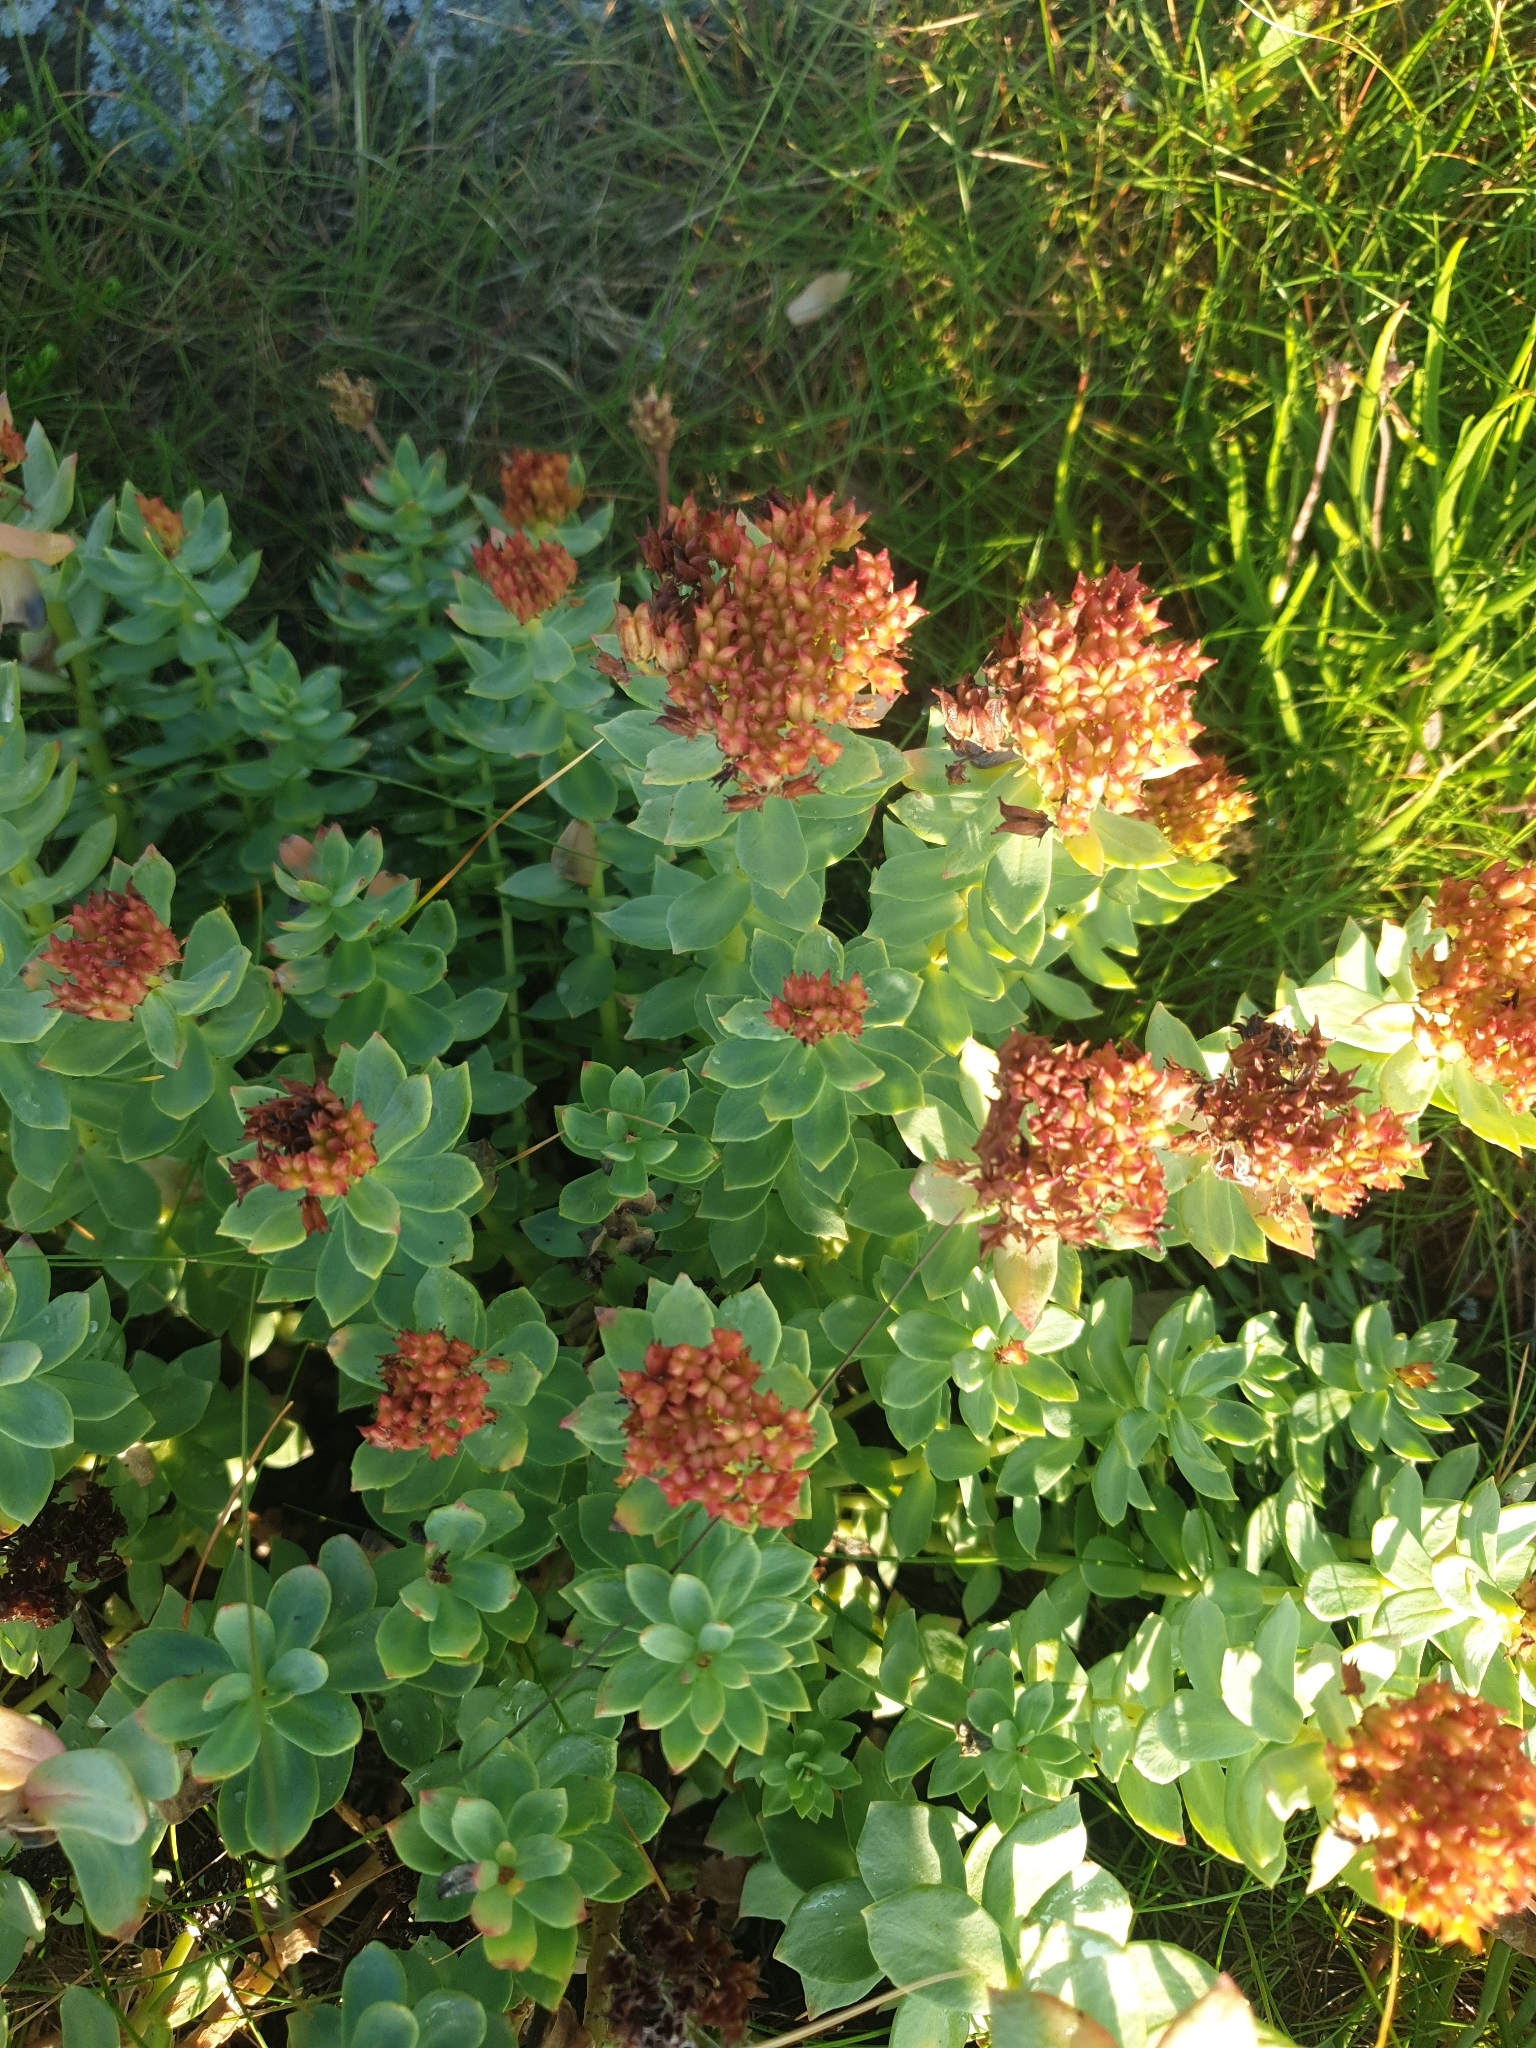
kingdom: Plantae
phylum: Tracheophyta
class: Magnoliopsida
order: Saxifragales
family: Crassulaceae
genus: Rhodiola
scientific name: Rhodiola rosea
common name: Roseroot
